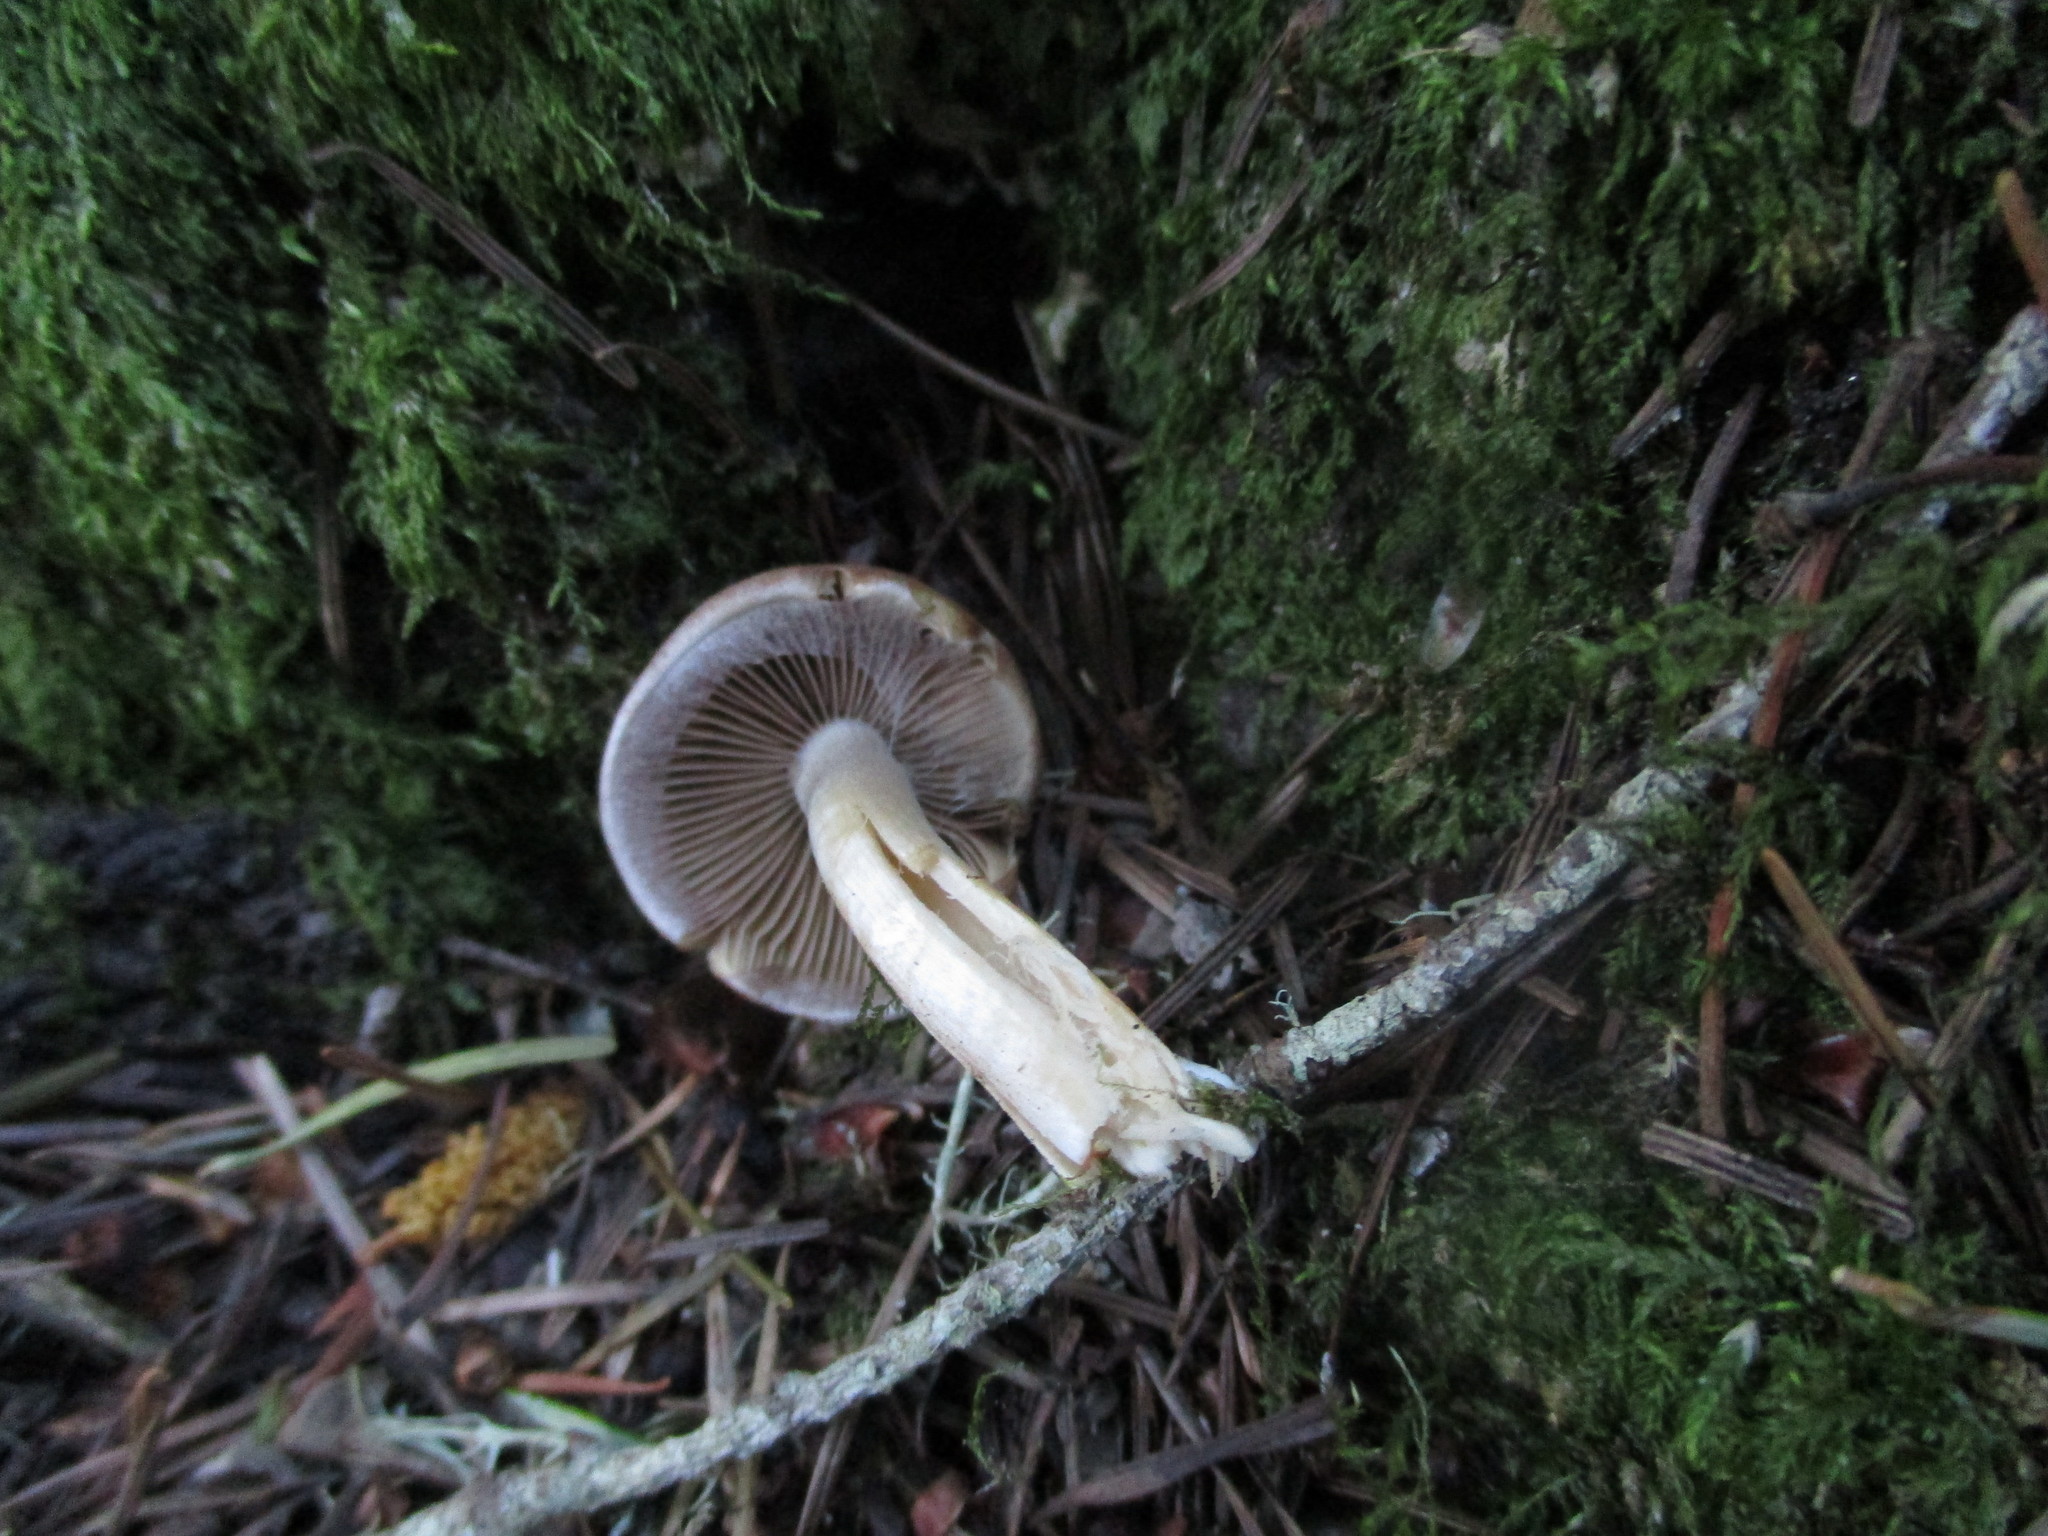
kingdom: Fungi
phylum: Basidiomycota
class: Agaricomycetes
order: Agaricales
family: Psathyrellaceae
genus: Psathyrella
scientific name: Psathyrella piluliformis
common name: Common stump brittlestem
